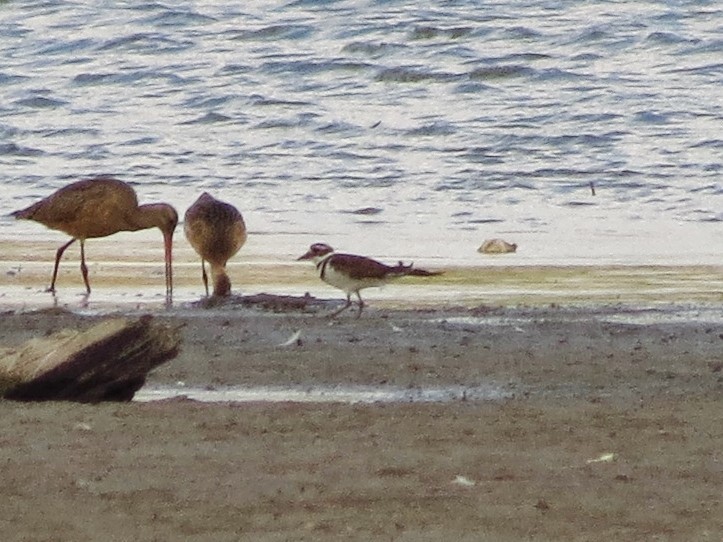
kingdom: Animalia
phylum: Chordata
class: Aves
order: Charadriiformes
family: Charadriidae
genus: Charadrius
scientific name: Charadrius vociferus
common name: Killdeer
